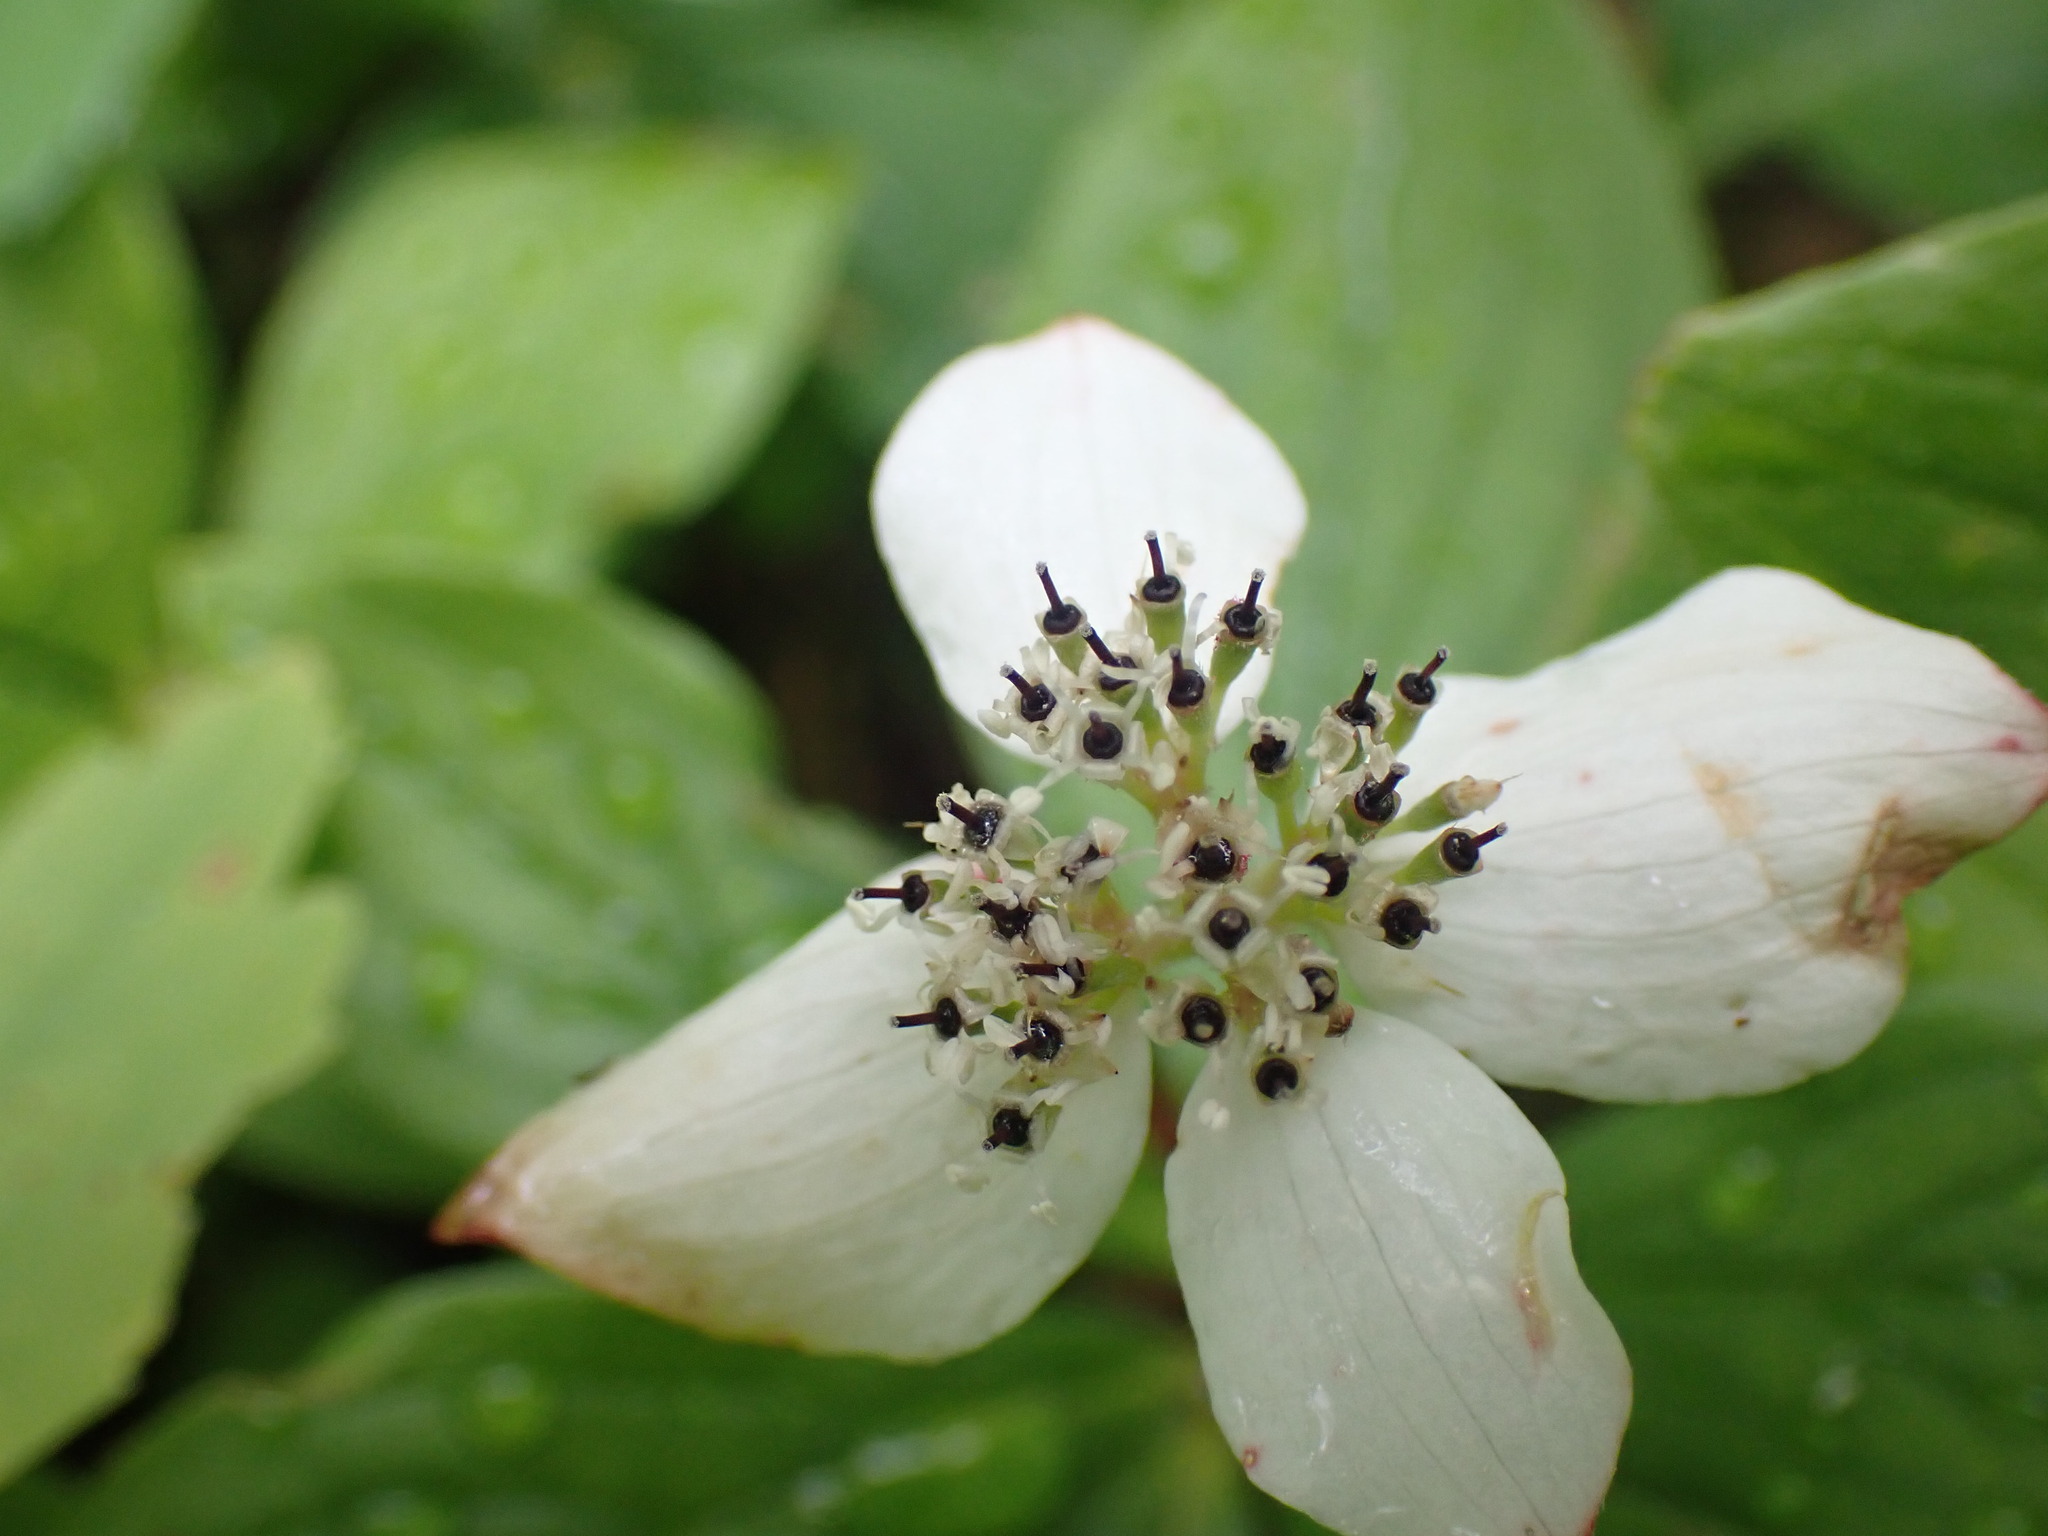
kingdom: Plantae
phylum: Tracheophyta
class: Magnoliopsida
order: Cornales
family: Cornaceae
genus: Cornus
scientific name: Cornus canadensis
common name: Creeping dogwood
